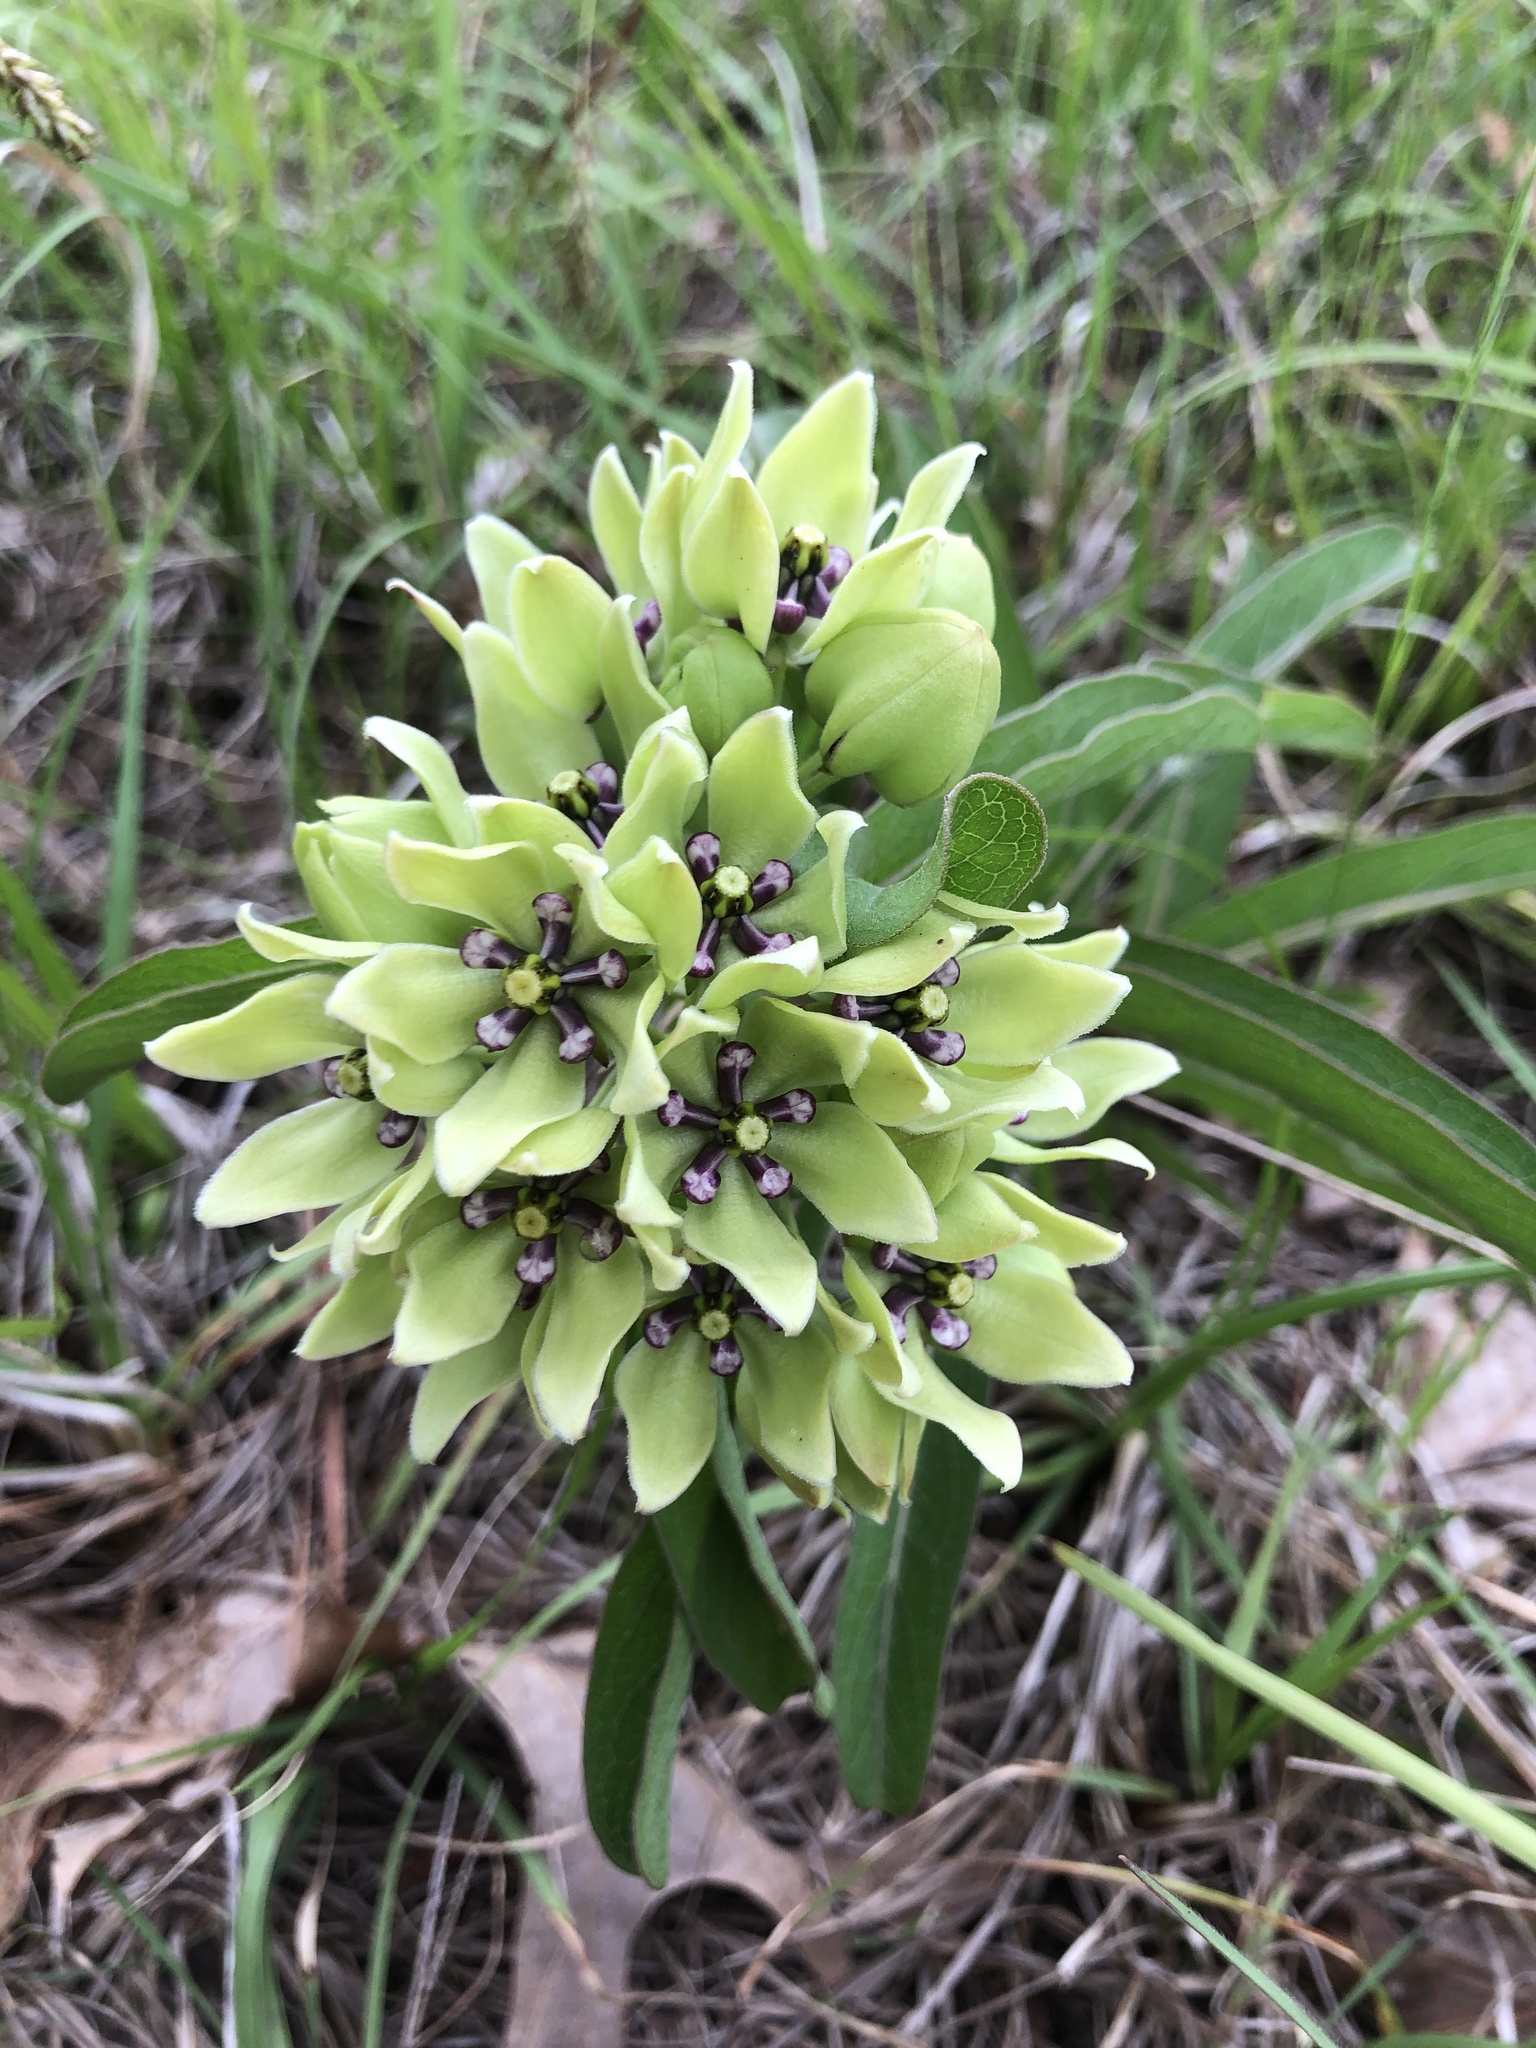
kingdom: Plantae
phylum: Tracheophyta
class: Magnoliopsida
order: Gentianales
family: Apocynaceae
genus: Asclepias
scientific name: Asclepias viridis
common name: Antelope-horns
